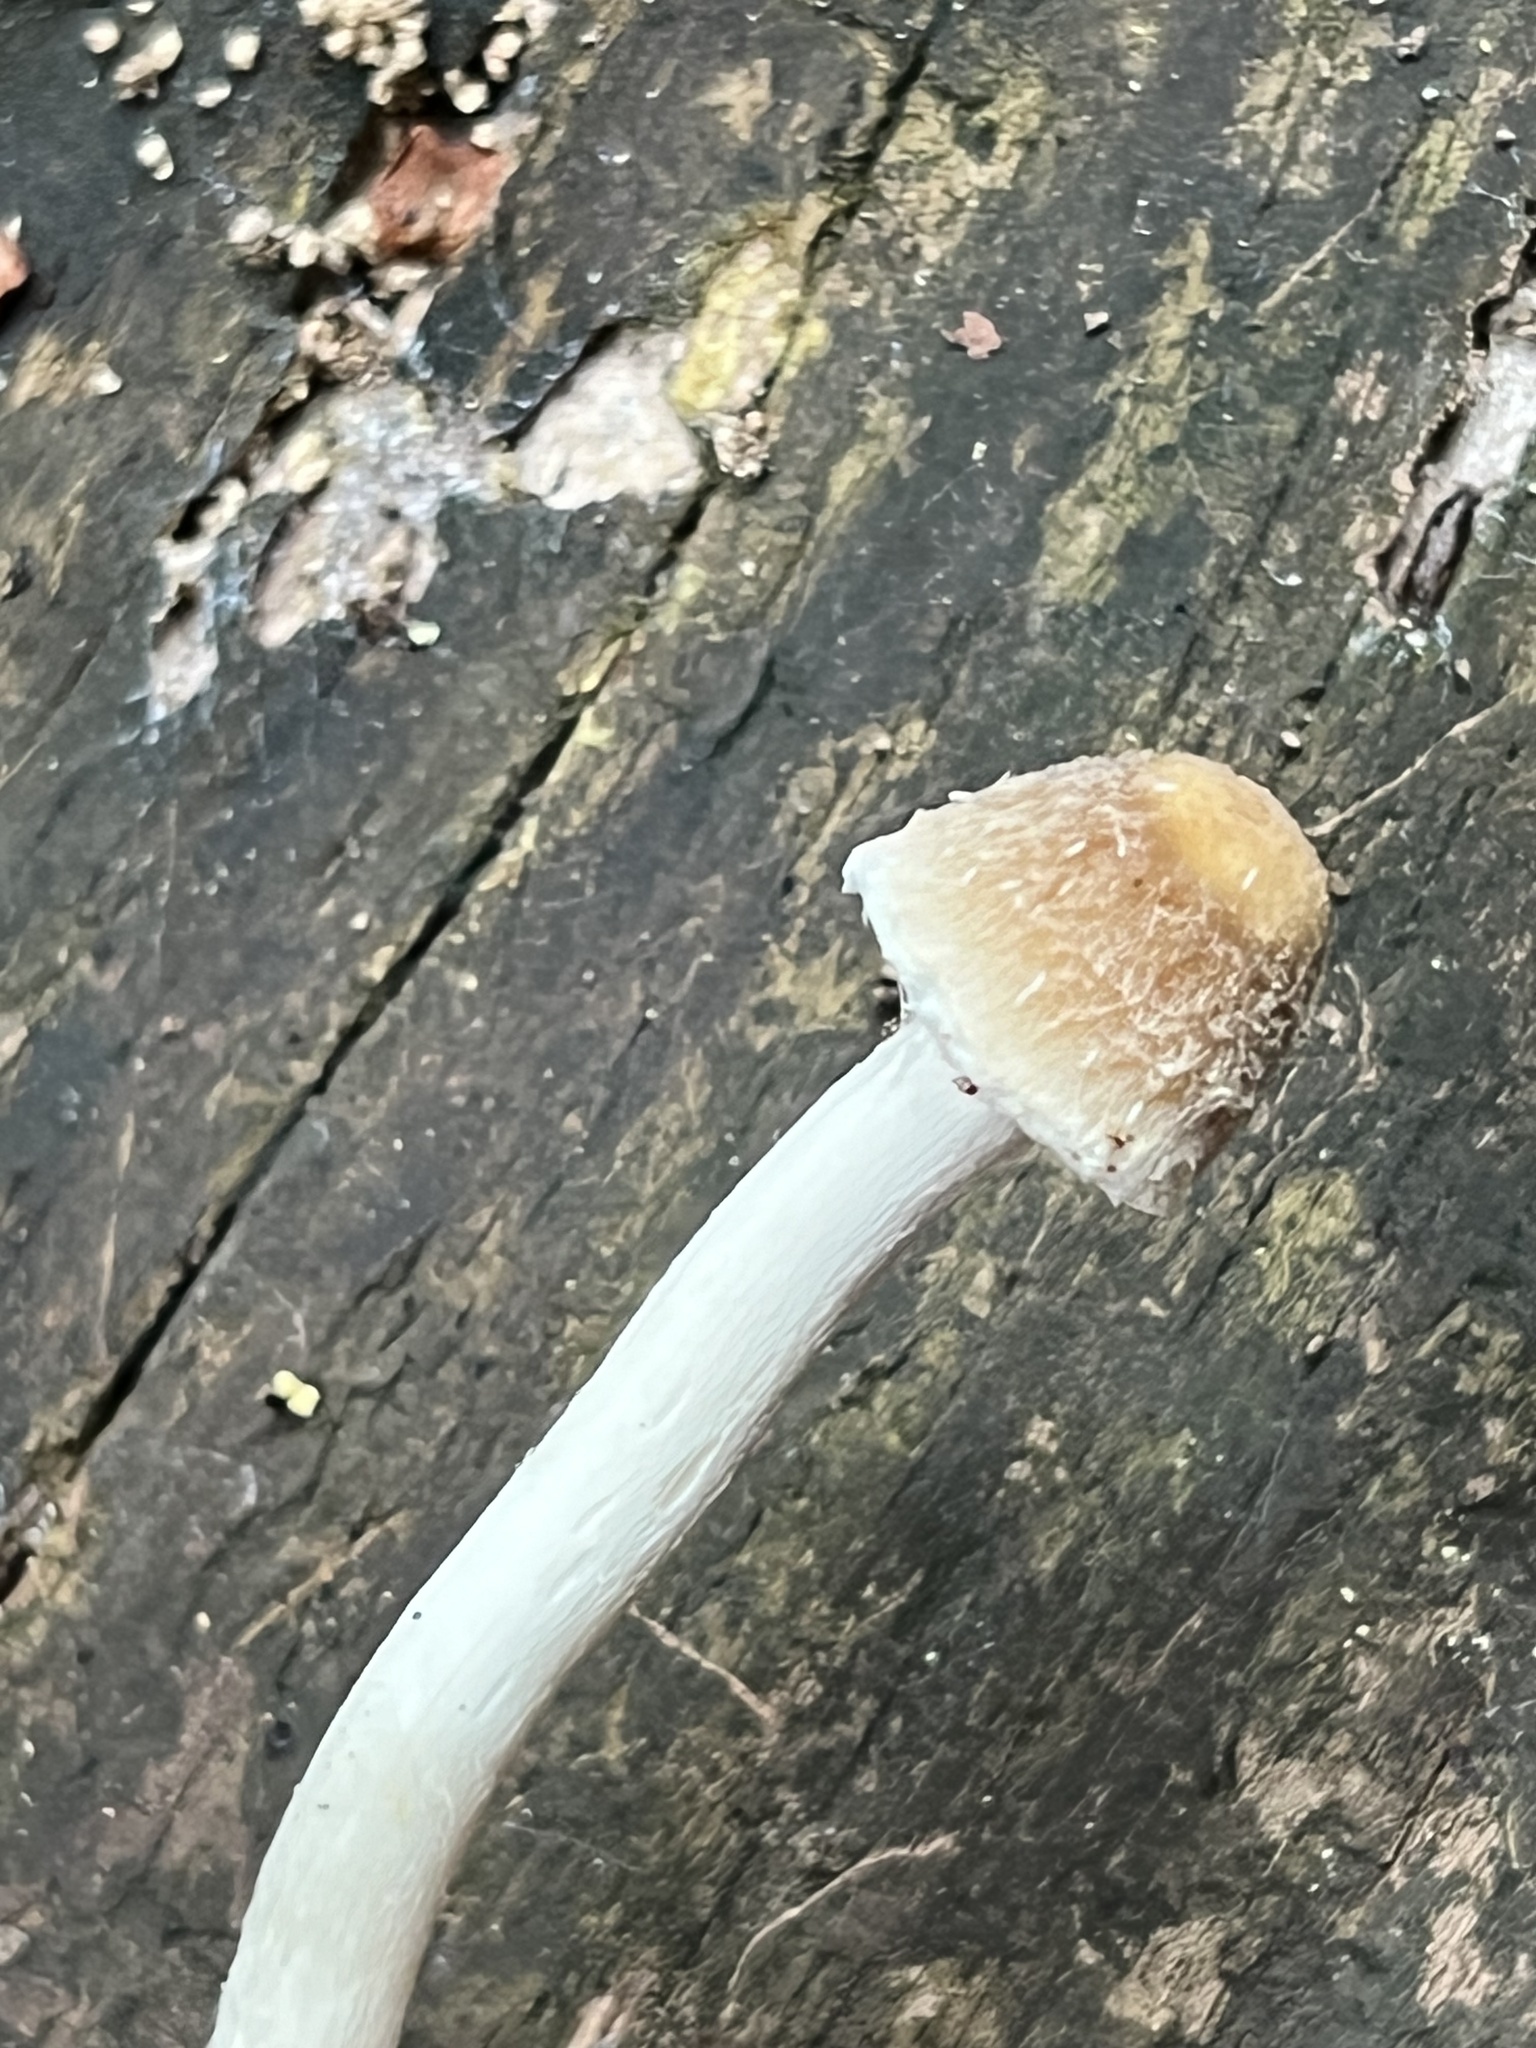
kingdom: Fungi
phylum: Basidiomycota
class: Agaricomycetes
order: Agaricales
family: Psathyrellaceae
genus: Candolleomyces
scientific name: Candolleomyces candolleanus
